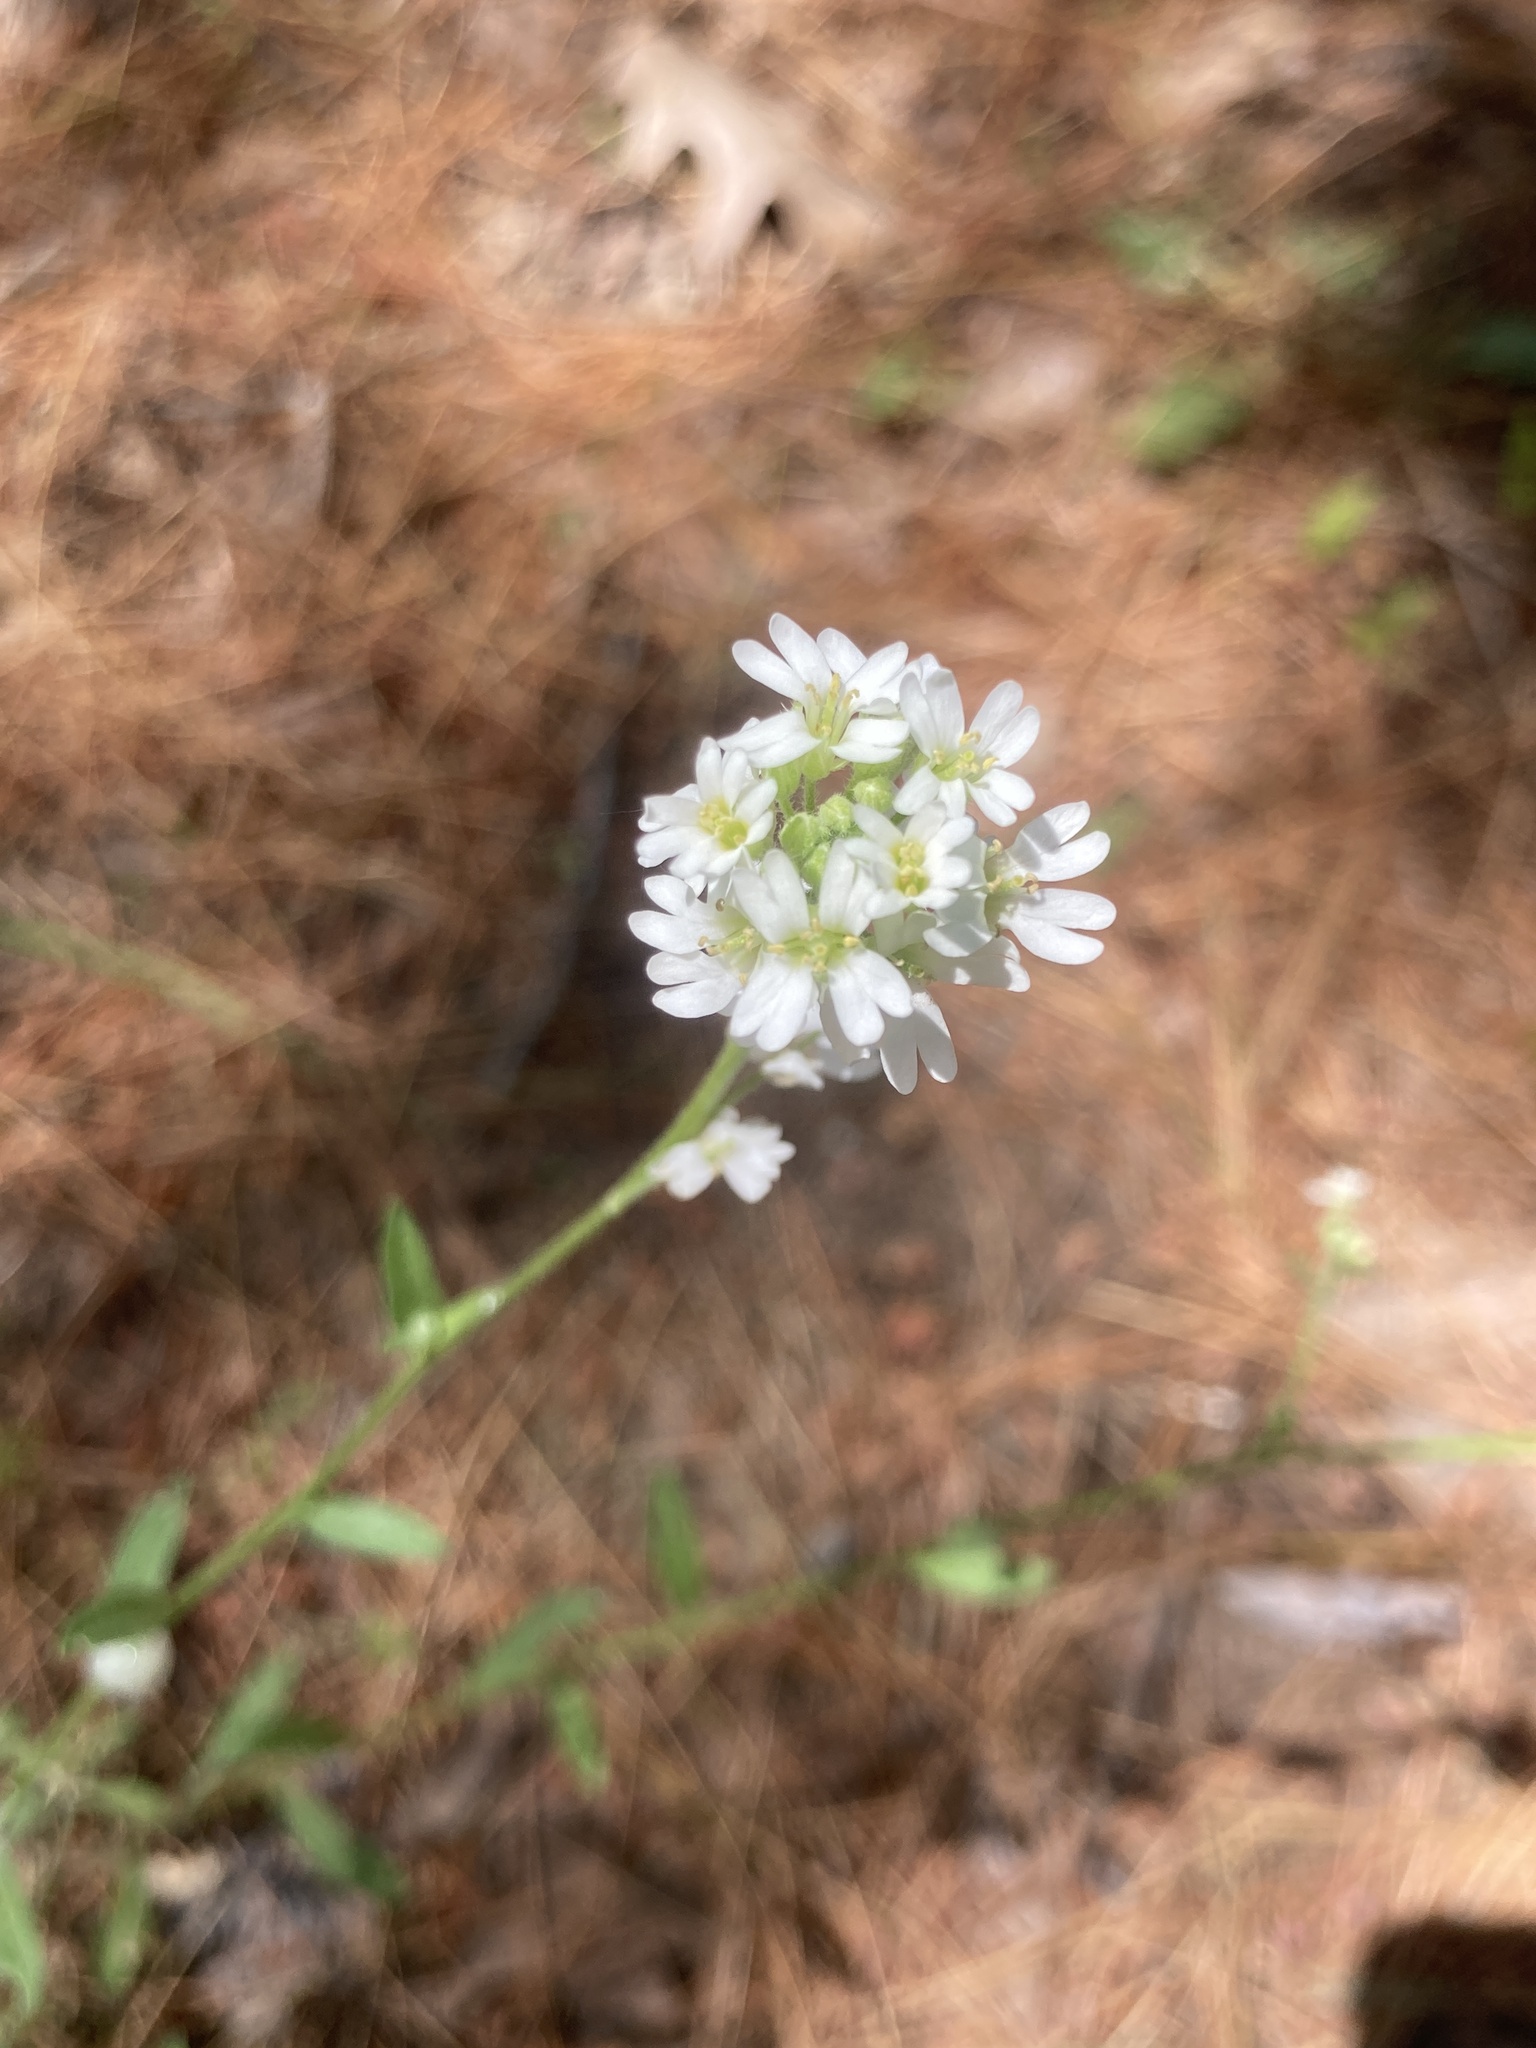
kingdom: Plantae
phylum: Tracheophyta
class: Magnoliopsida
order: Brassicales
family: Brassicaceae
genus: Berteroa
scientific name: Berteroa incana
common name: Hoary alison
